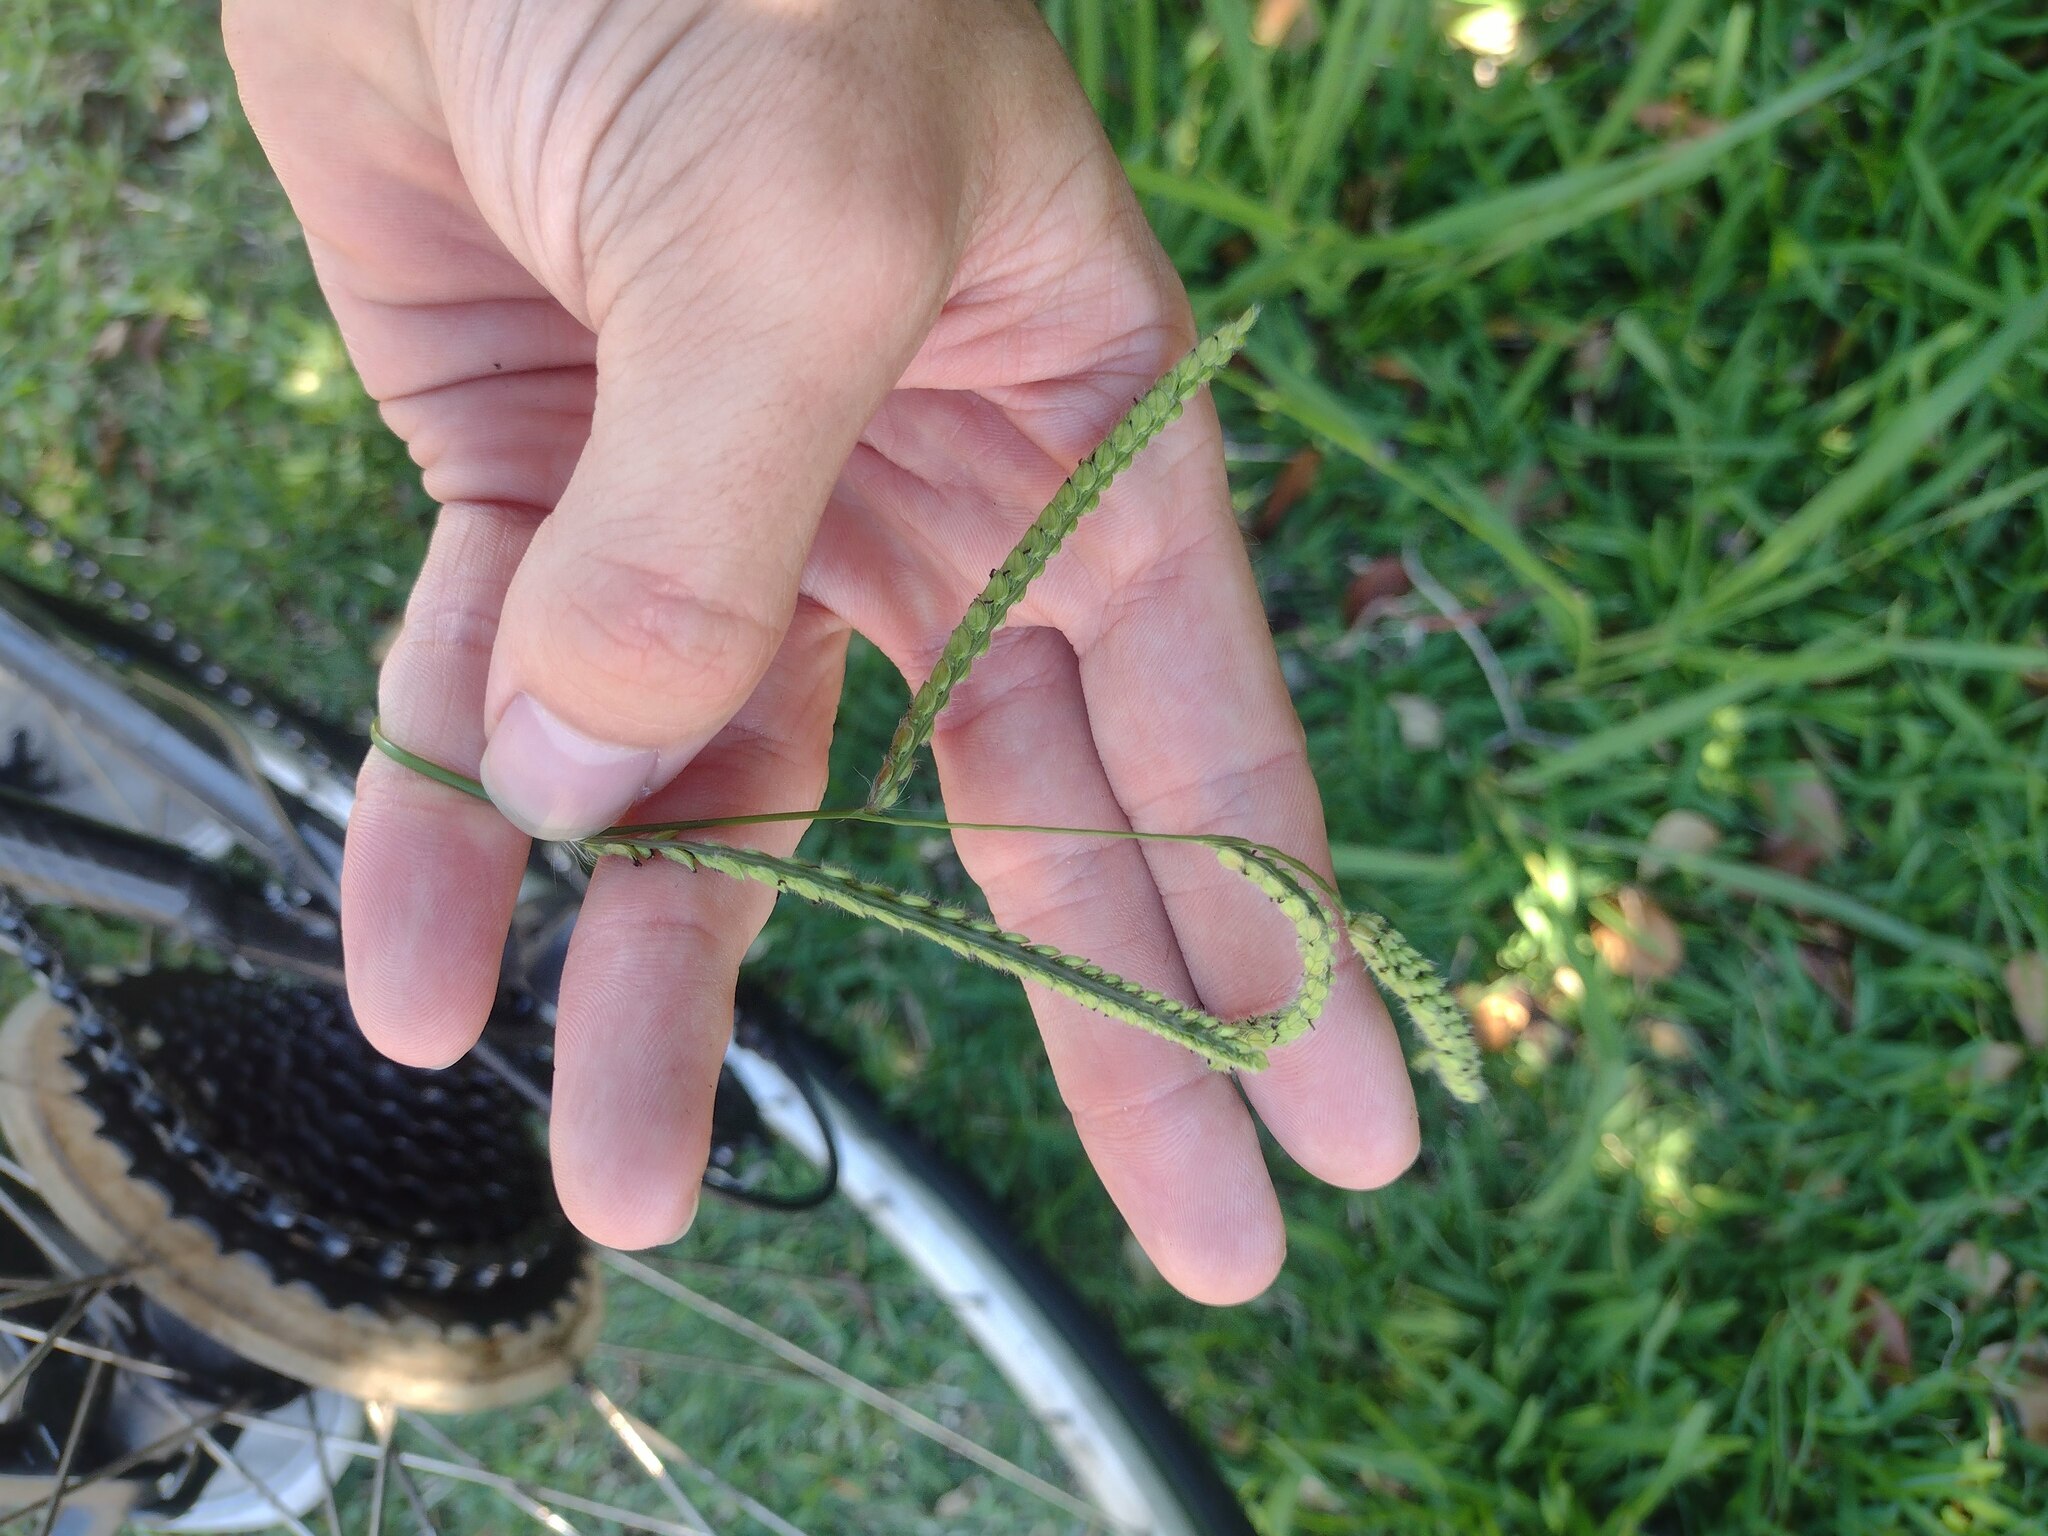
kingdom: Plantae
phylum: Tracheophyta
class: Liliopsida
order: Poales
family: Poaceae
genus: Paspalum
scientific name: Paspalum dilatatum
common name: Dallisgrass
